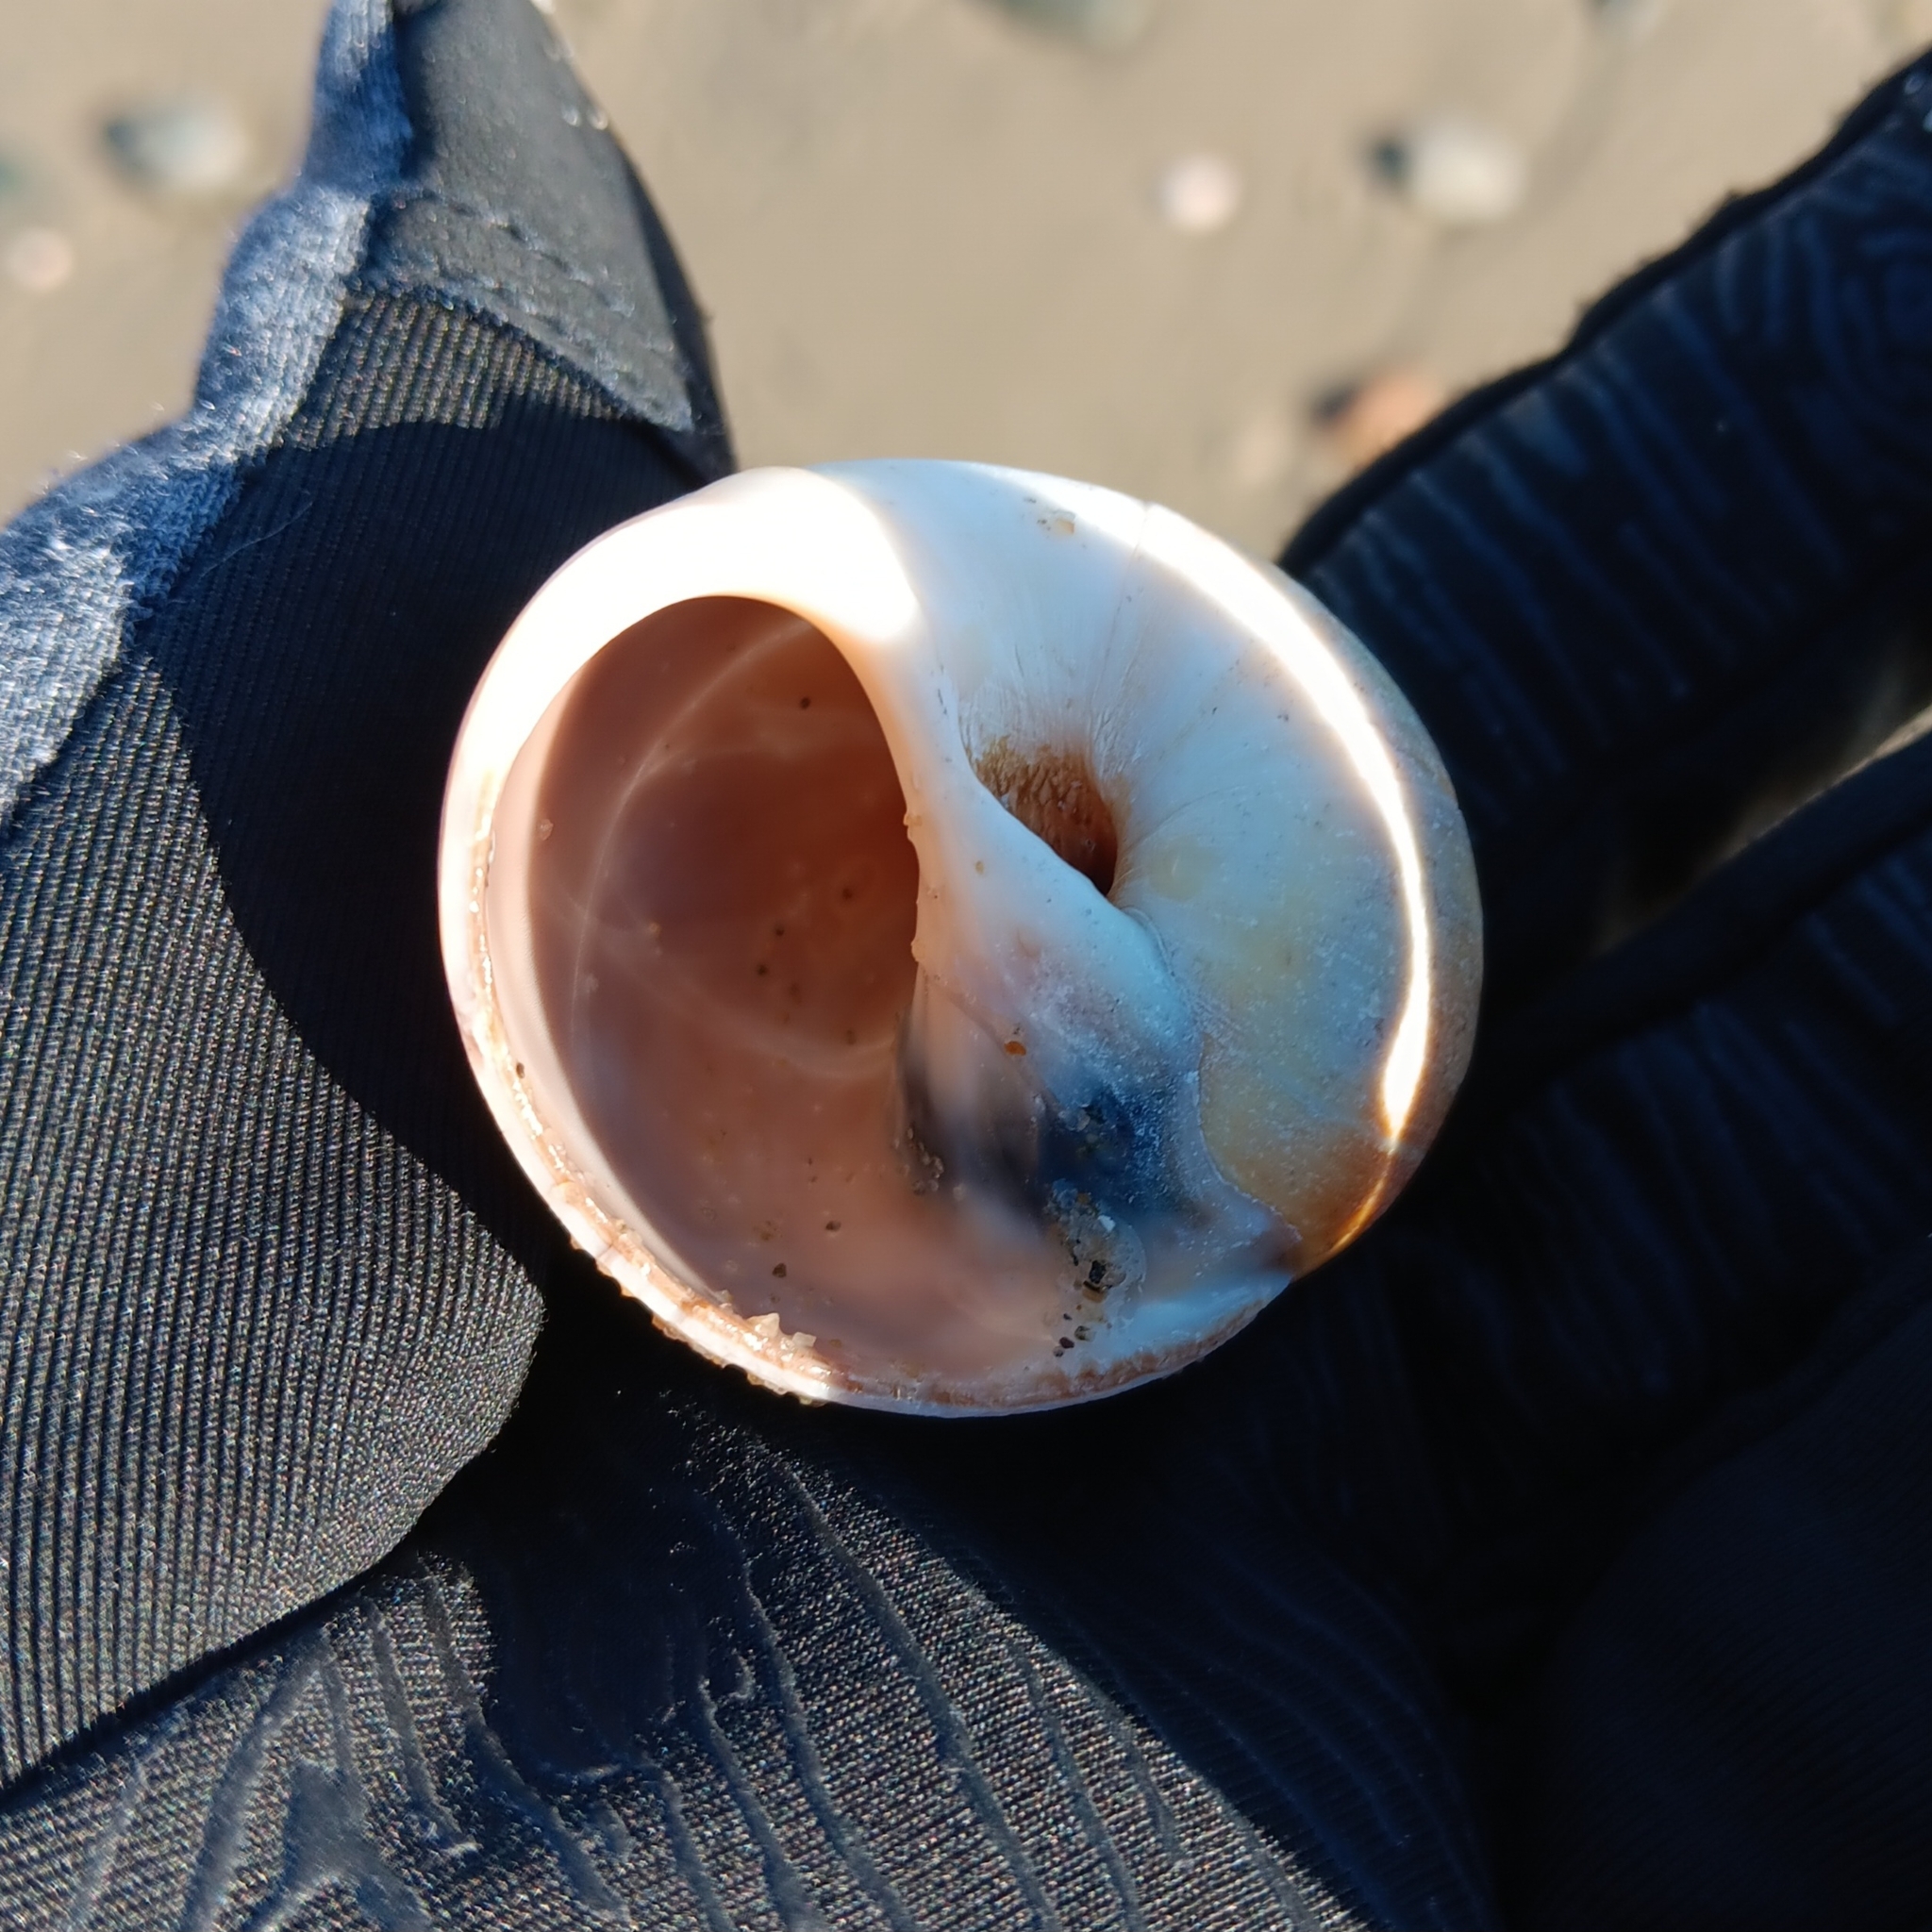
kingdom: Animalia
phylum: Mollusca
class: Gastropoda
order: Littorinimorpha
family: Naticidae
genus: Euspira
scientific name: Euspira heros
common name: Common northern moonsnail
